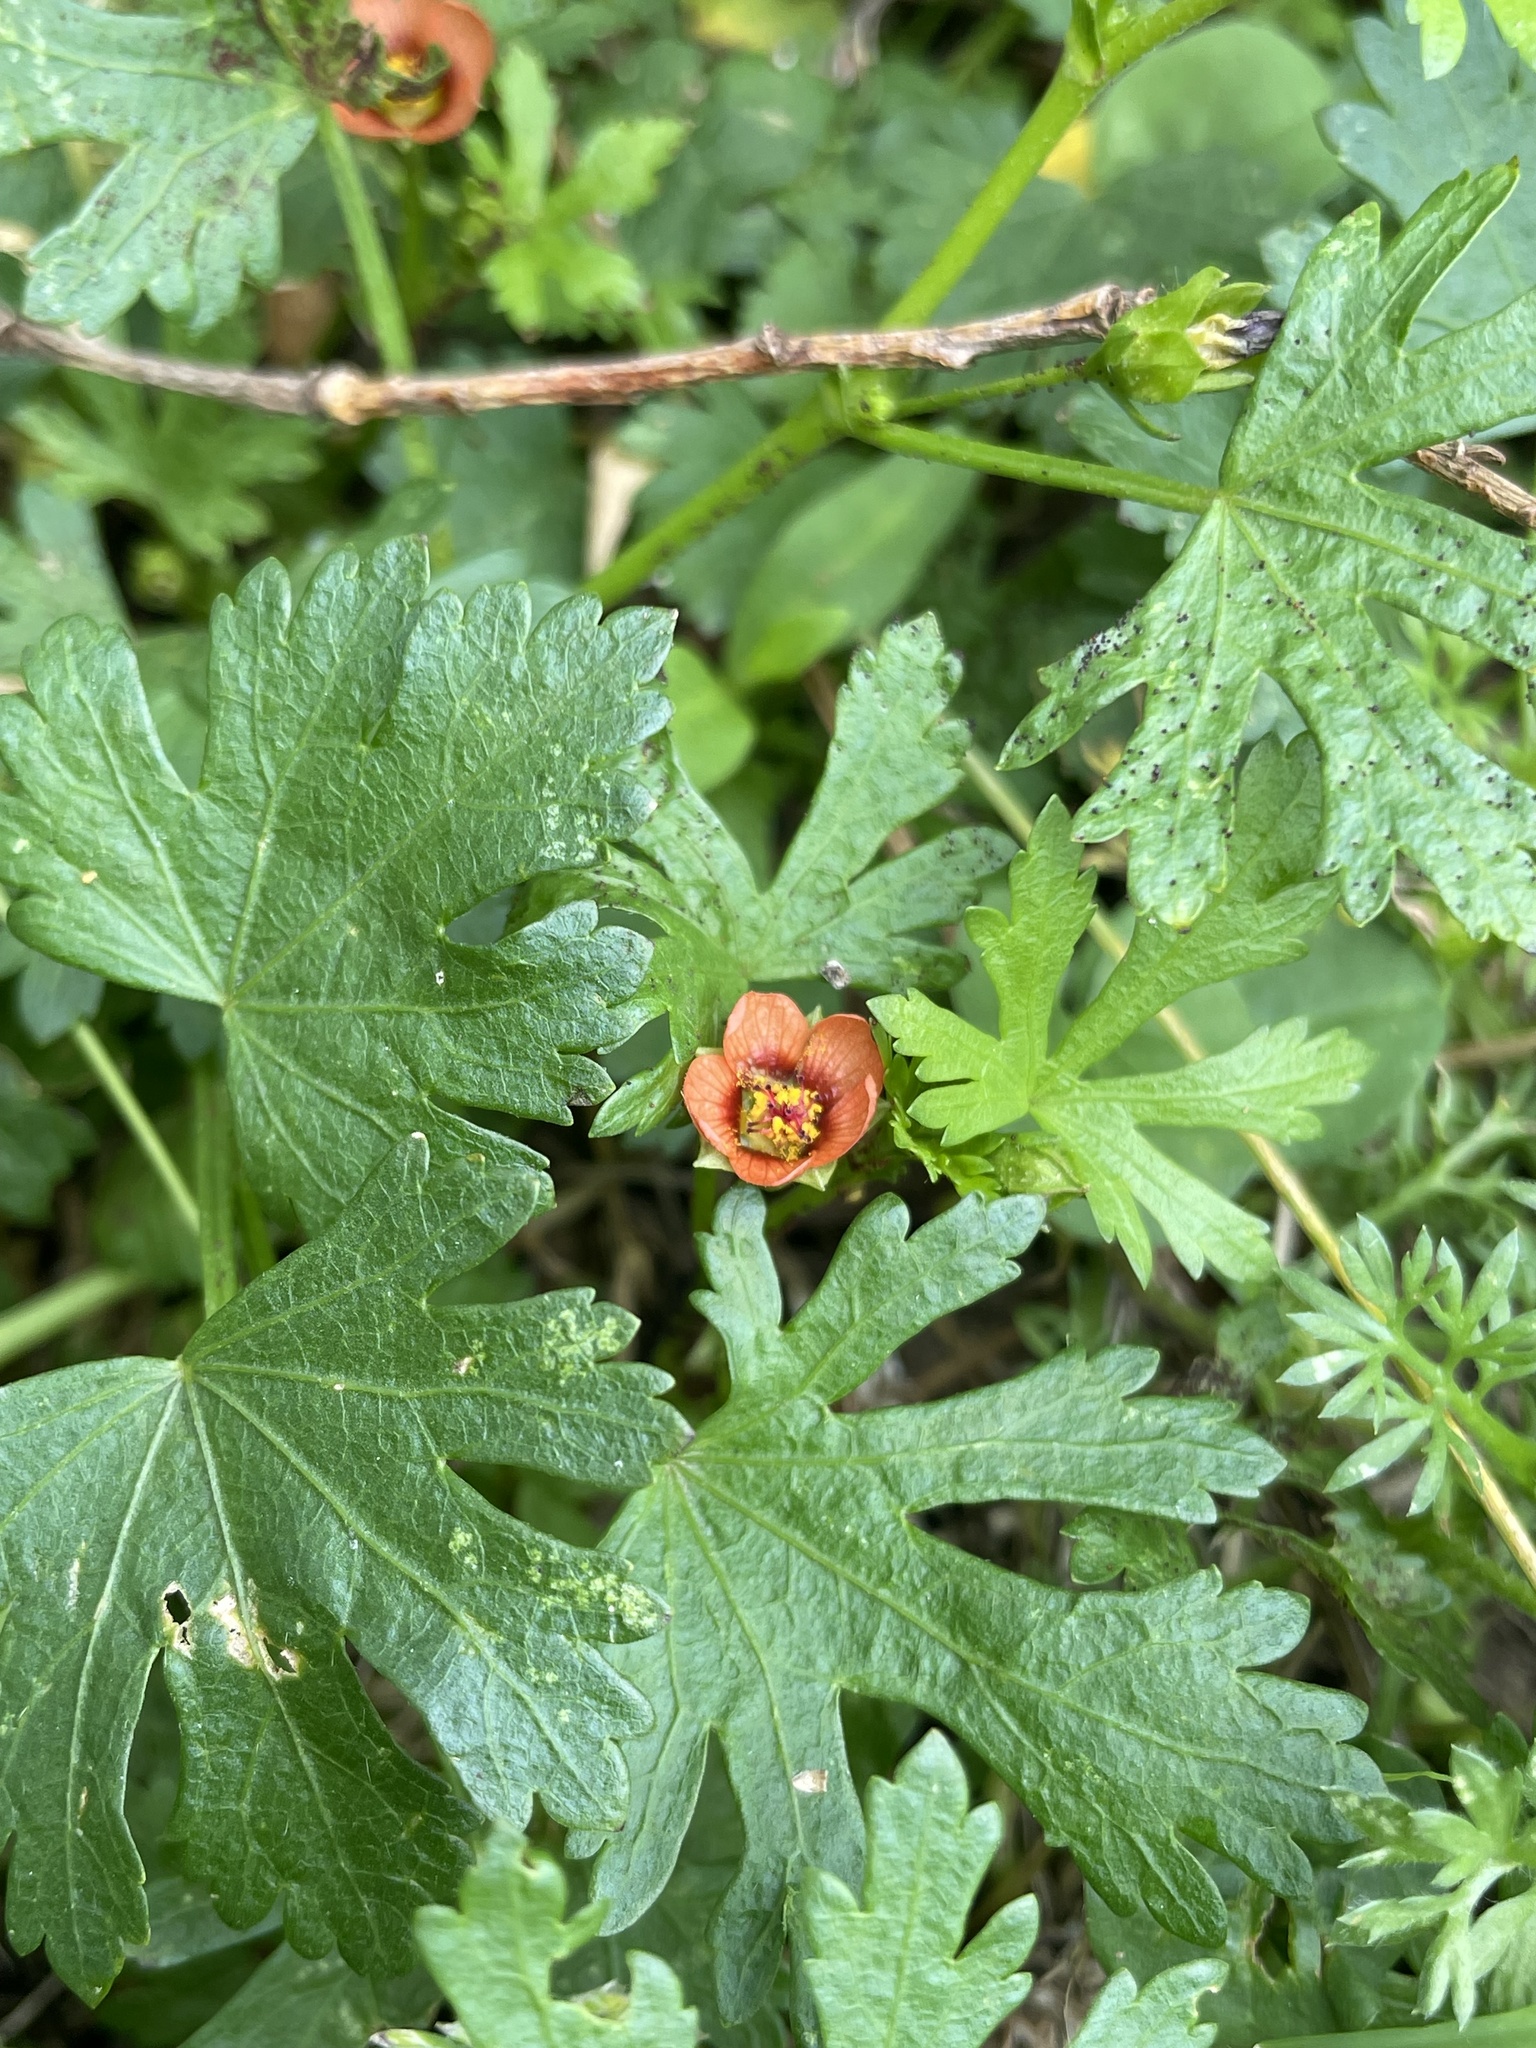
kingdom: Plantae
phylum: Tracheophyta
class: Magnoliopsida
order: Malvales
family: Malvaceae
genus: Modiola
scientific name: Modiola caroliniana
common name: Carolina bristlemallow
